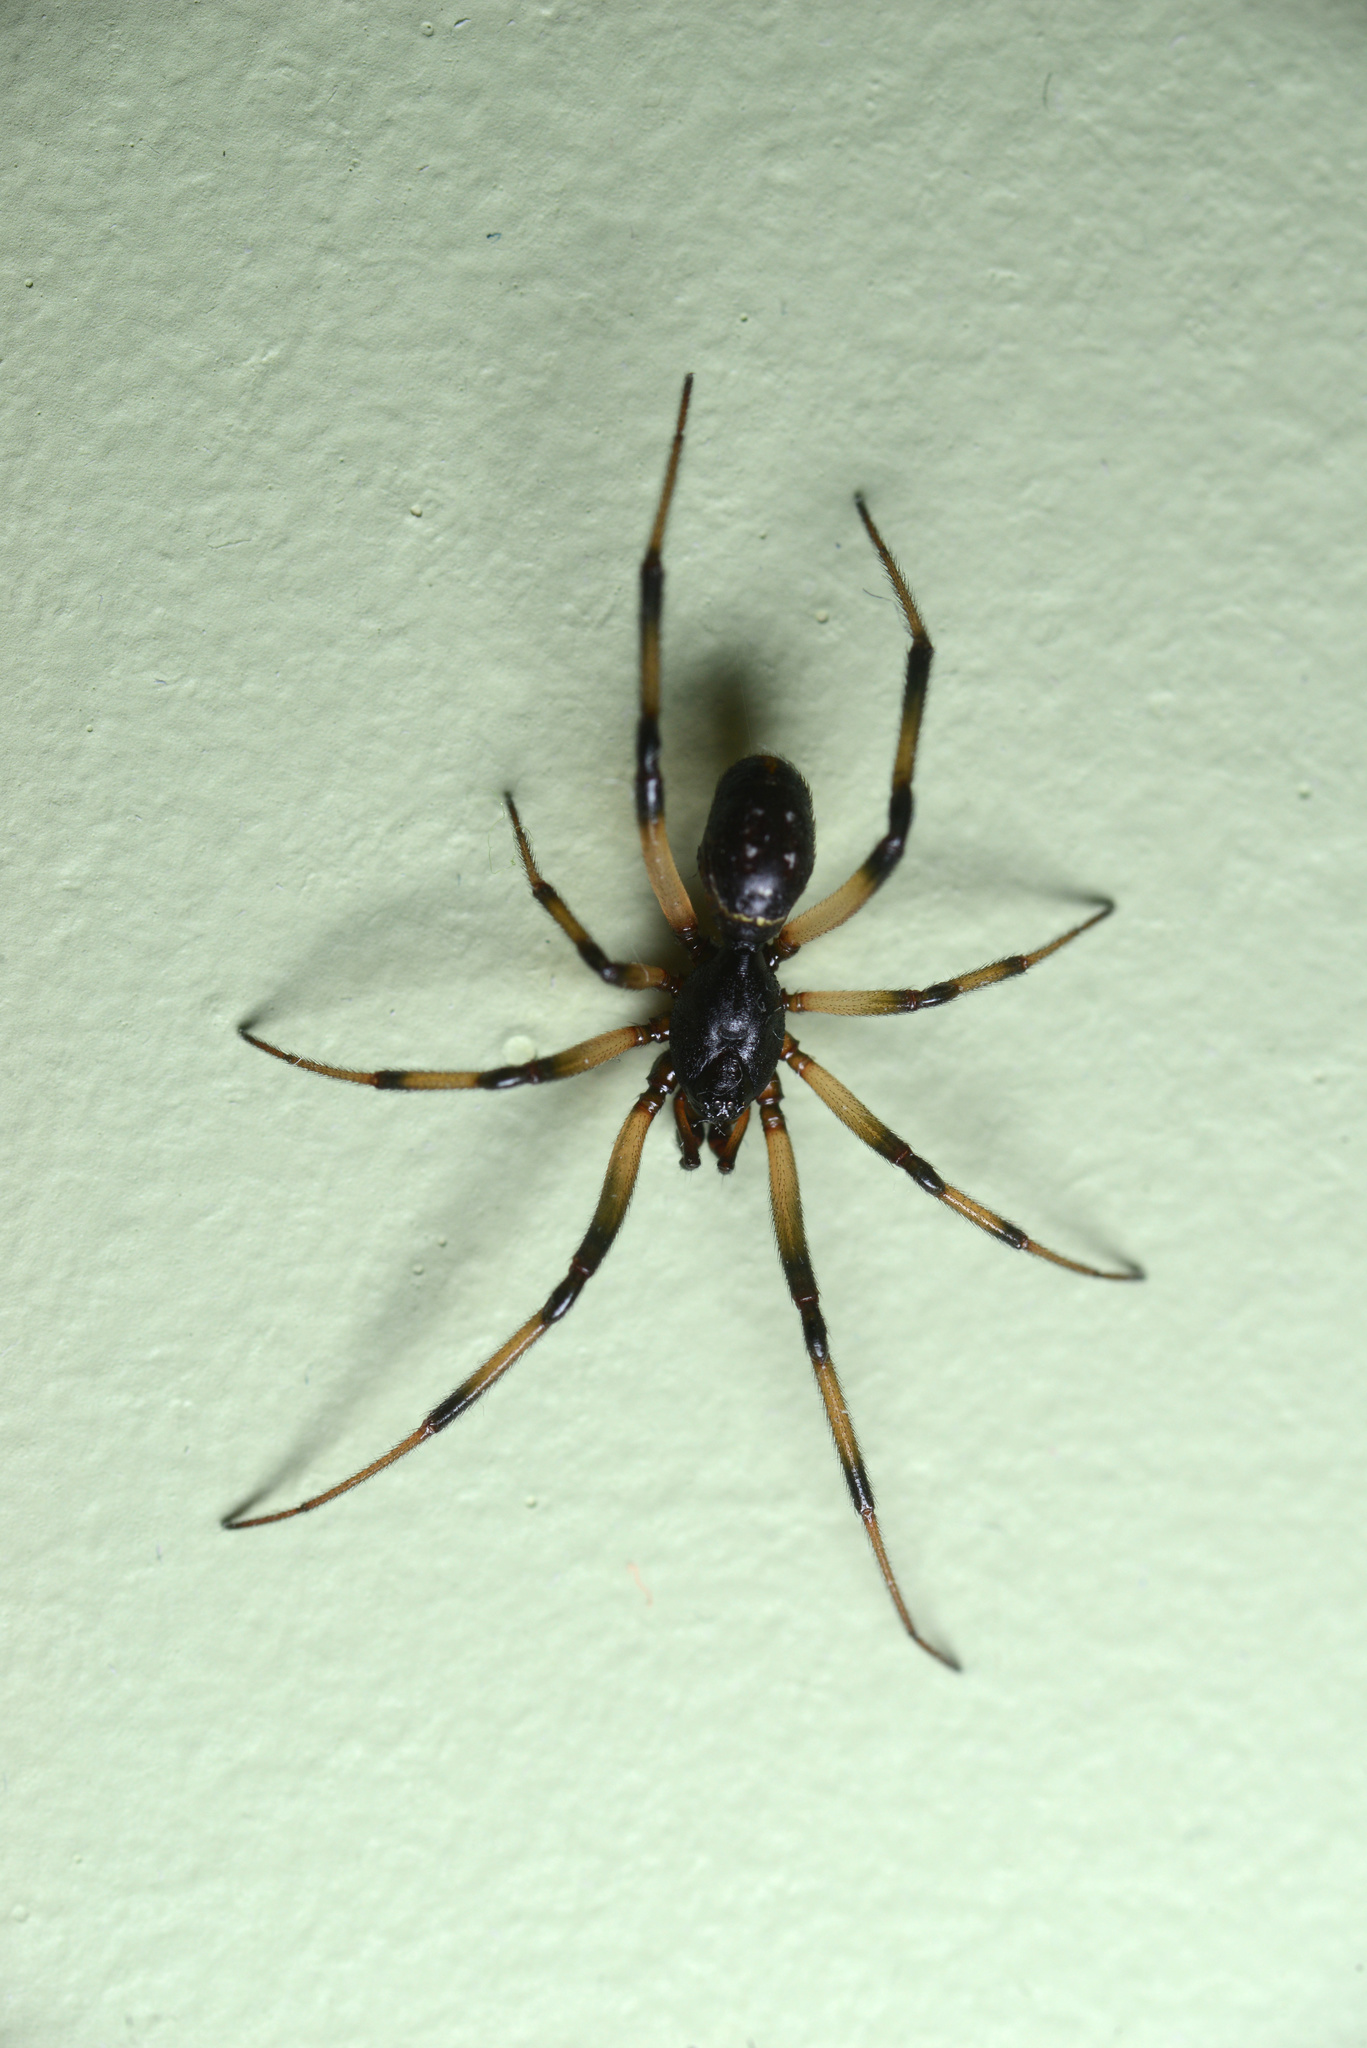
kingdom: Animalia
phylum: Arthropoda
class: Arachnida
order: Araneae
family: Theridiidae
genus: Steatoda
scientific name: Steatoda capensis
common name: Cobweb weaver
